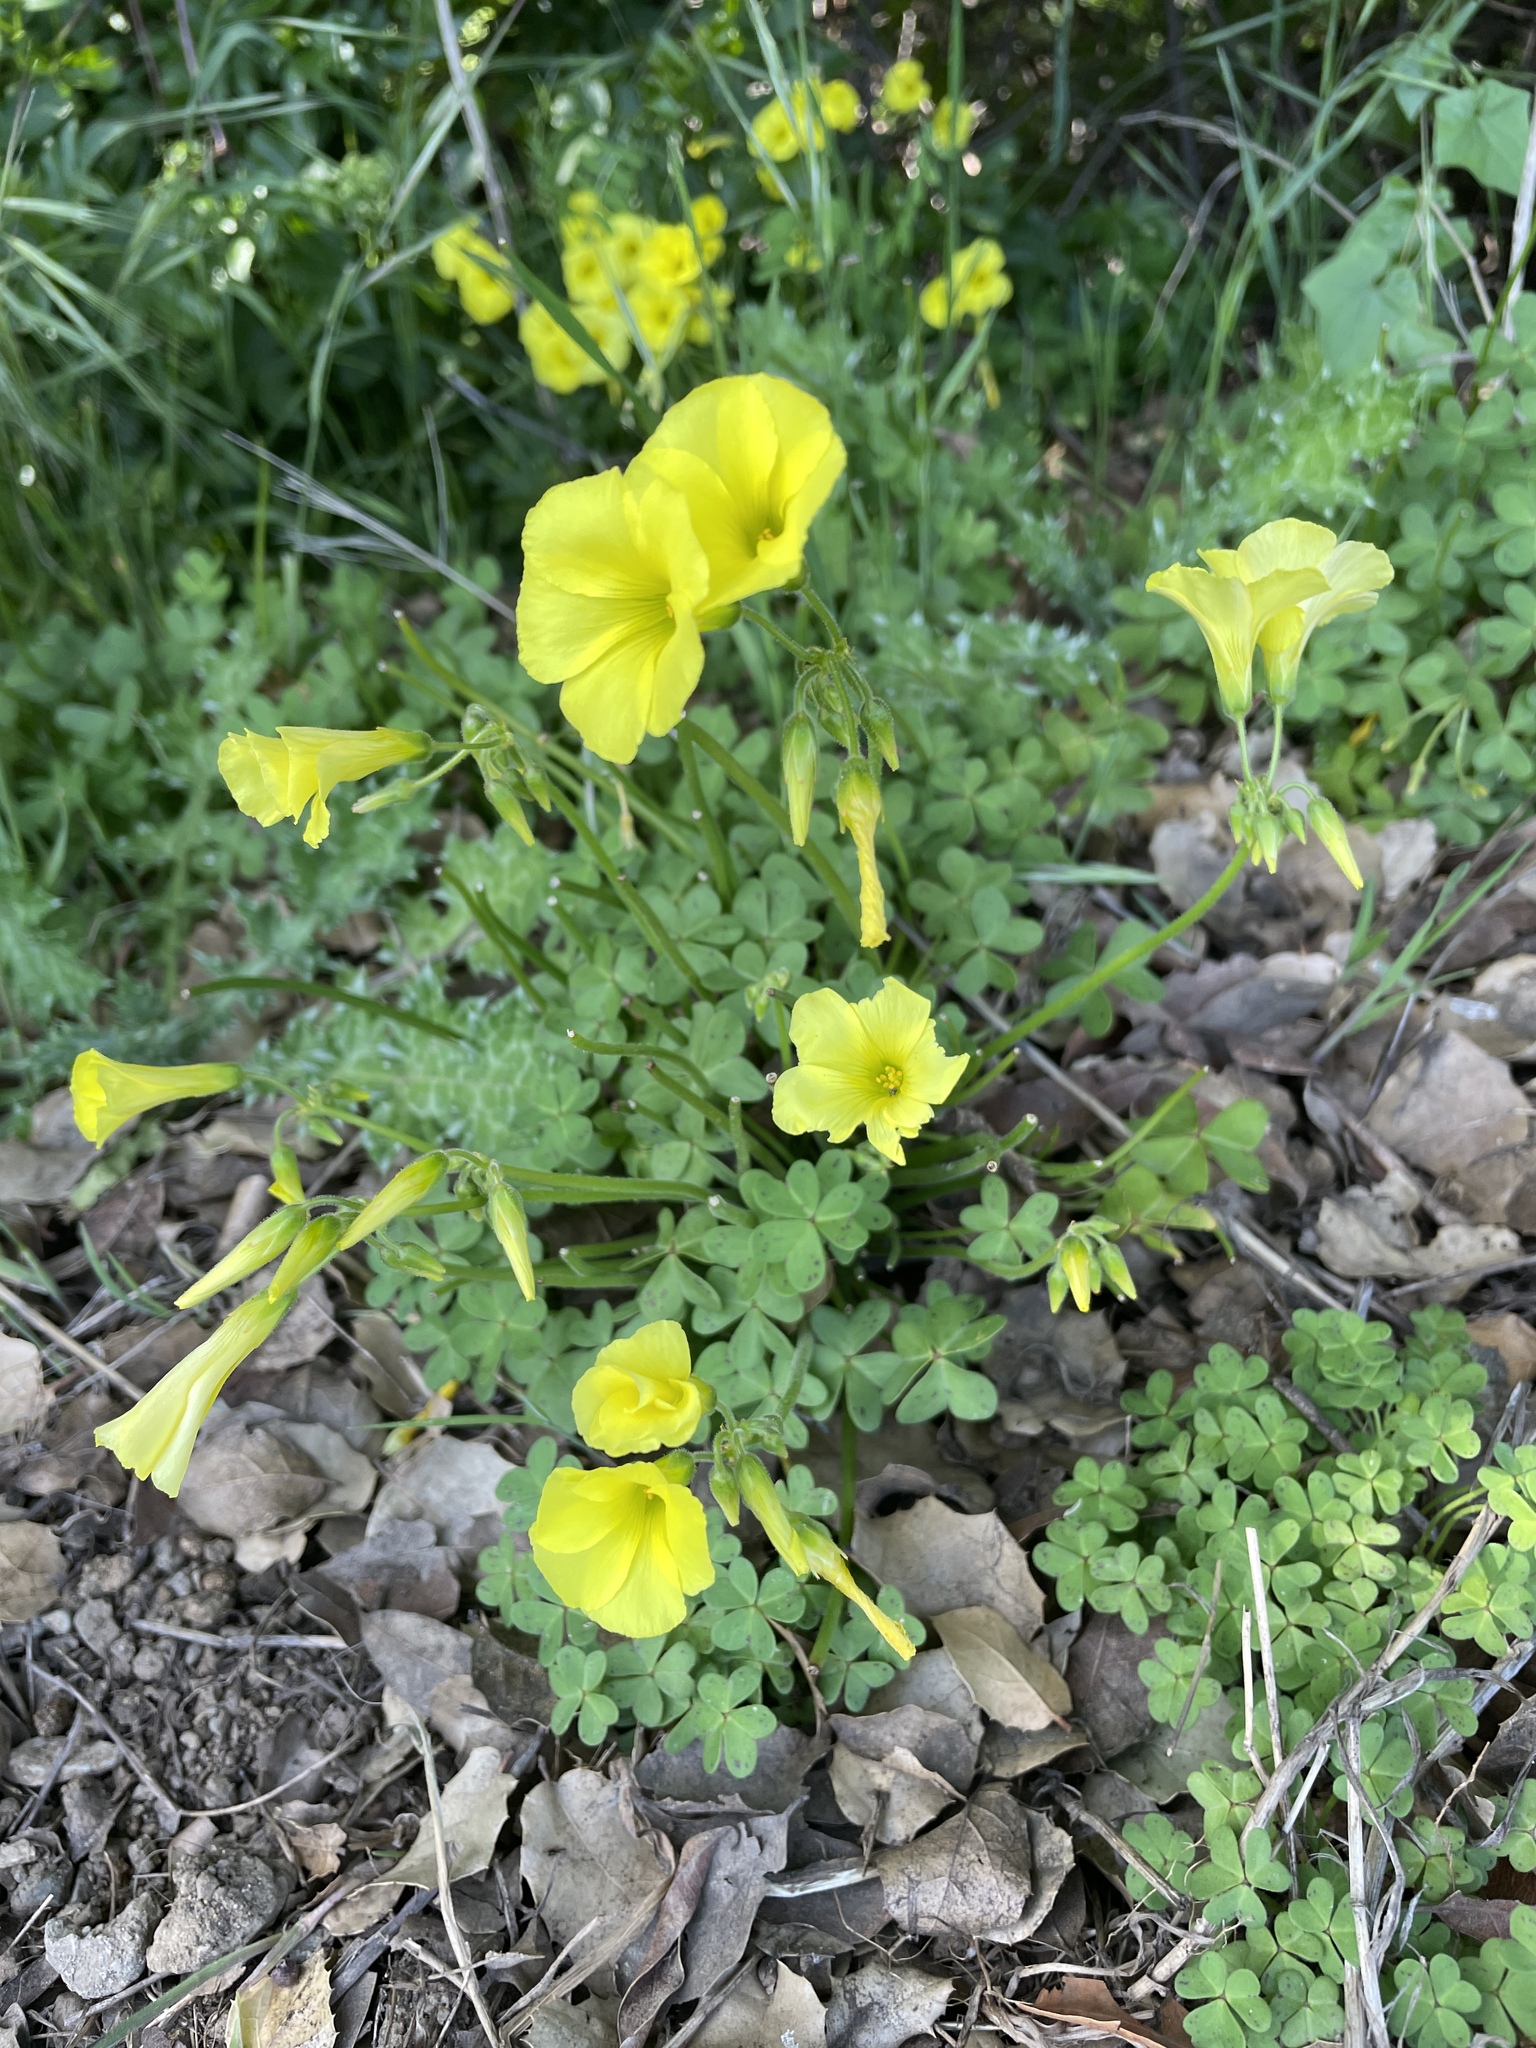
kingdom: Plantae
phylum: Tracheophyta
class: Magnoliopsida
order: Oxalidales
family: Oxalidaceae
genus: Oxalis
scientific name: Oxalis pes-caprae
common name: Bermuda-buttercup
